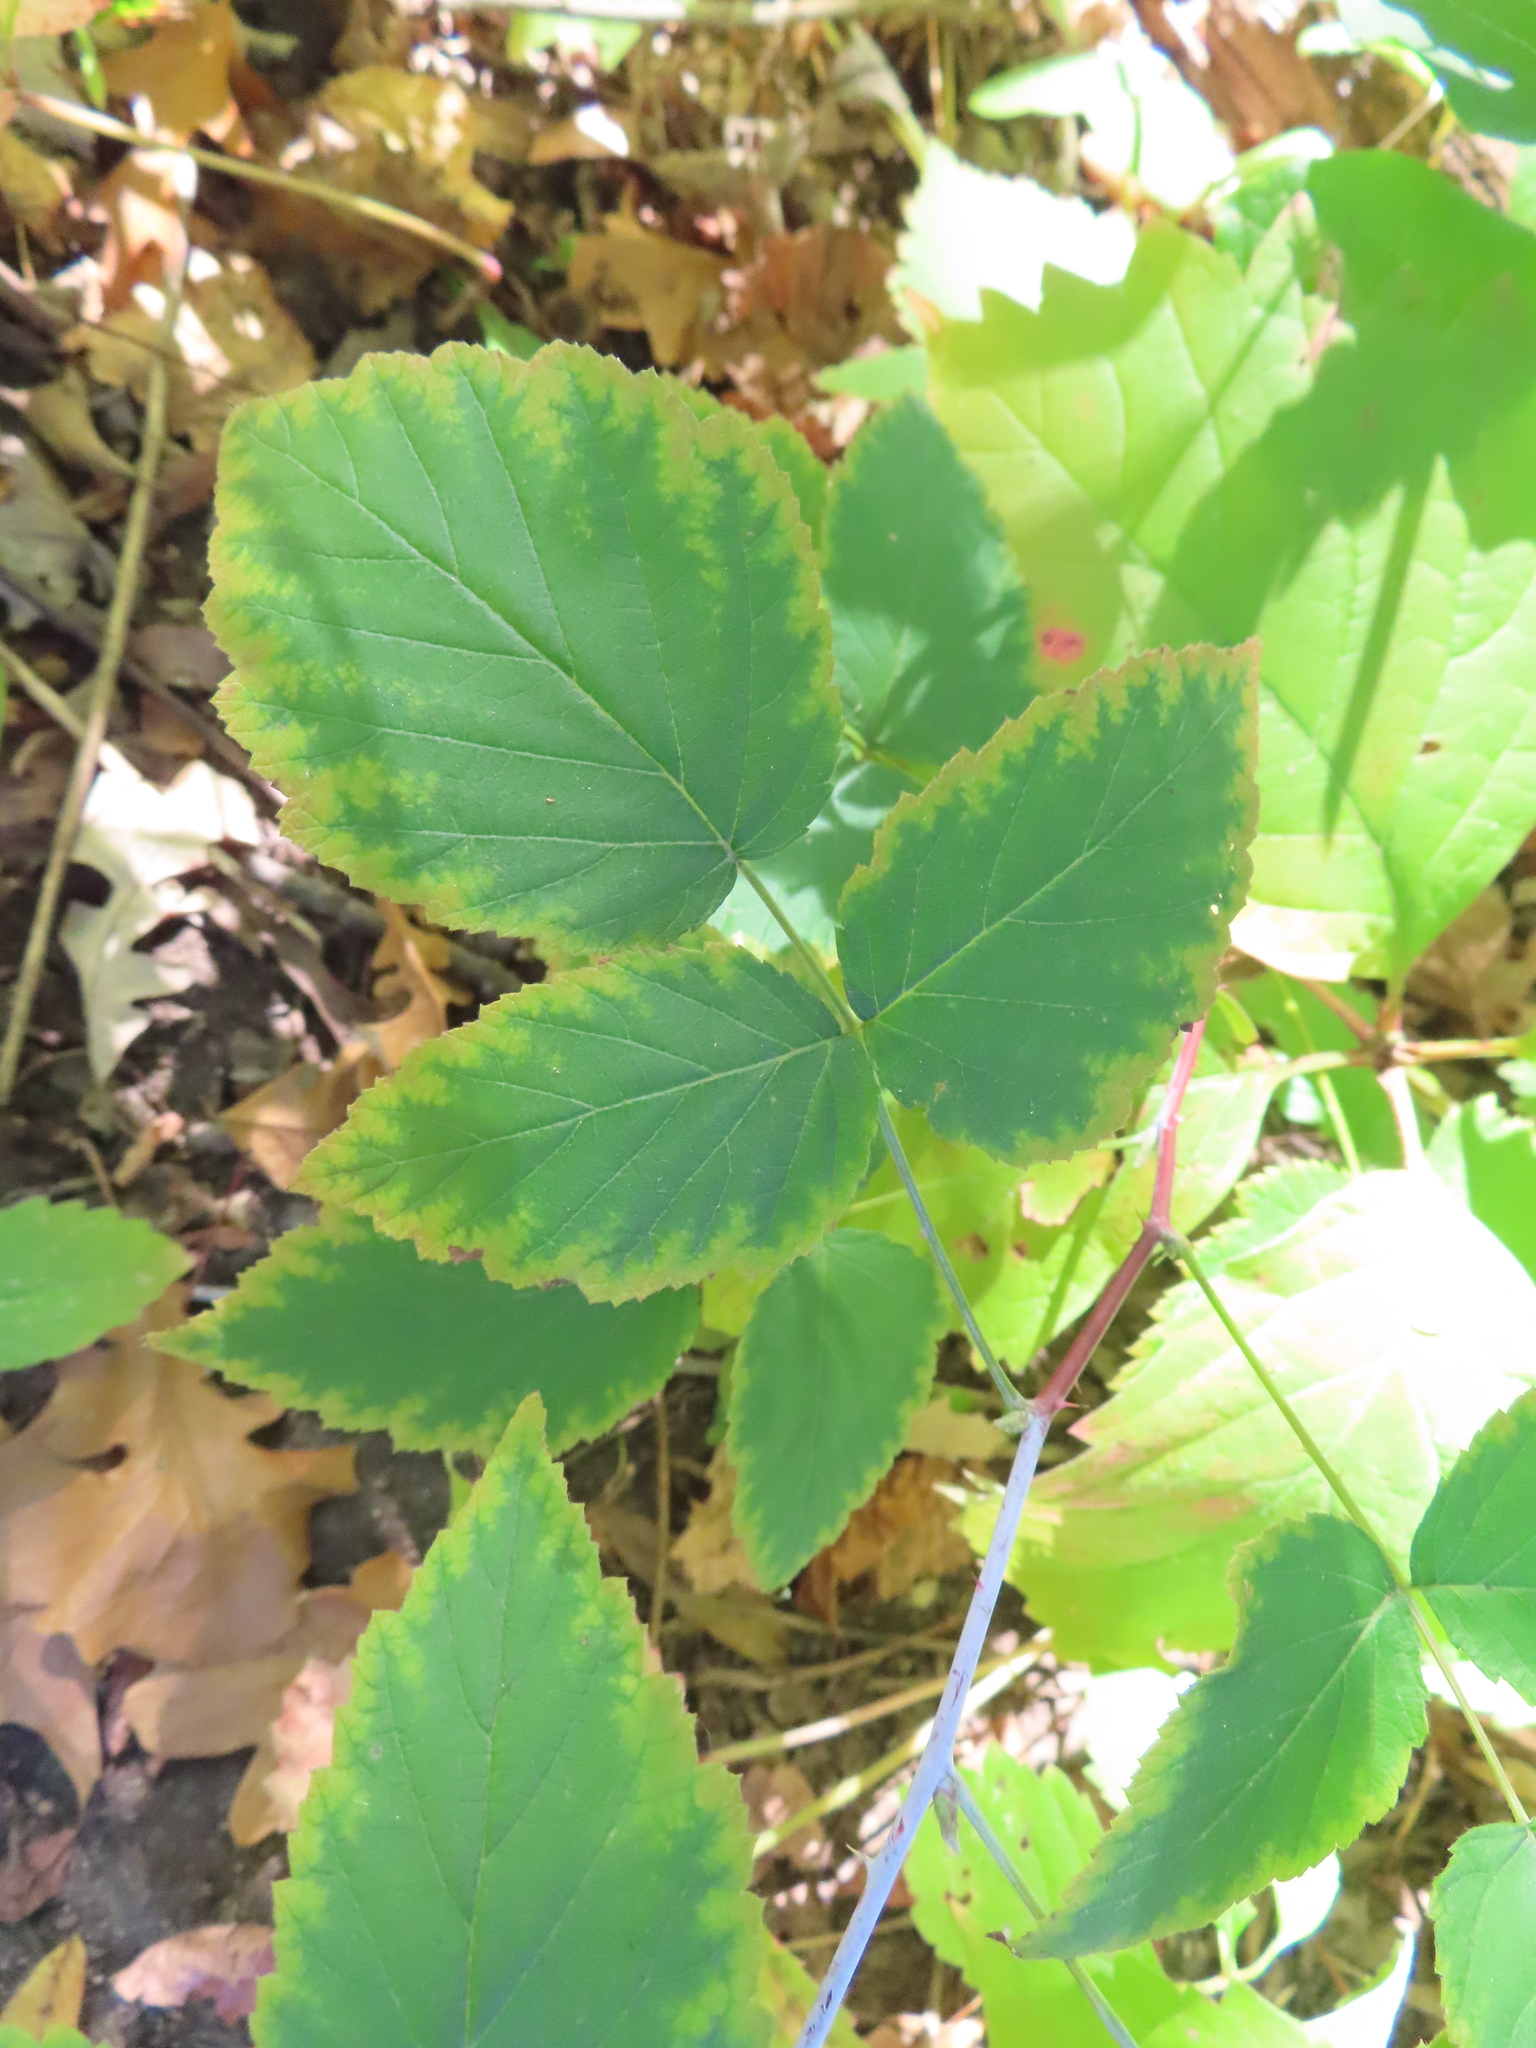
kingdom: Plantae
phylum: Tracheophyta
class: Magnoliopsida
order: Rosales
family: Rosaceae
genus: Rubus
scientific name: Rubus occidentalis
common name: Black raspberry
